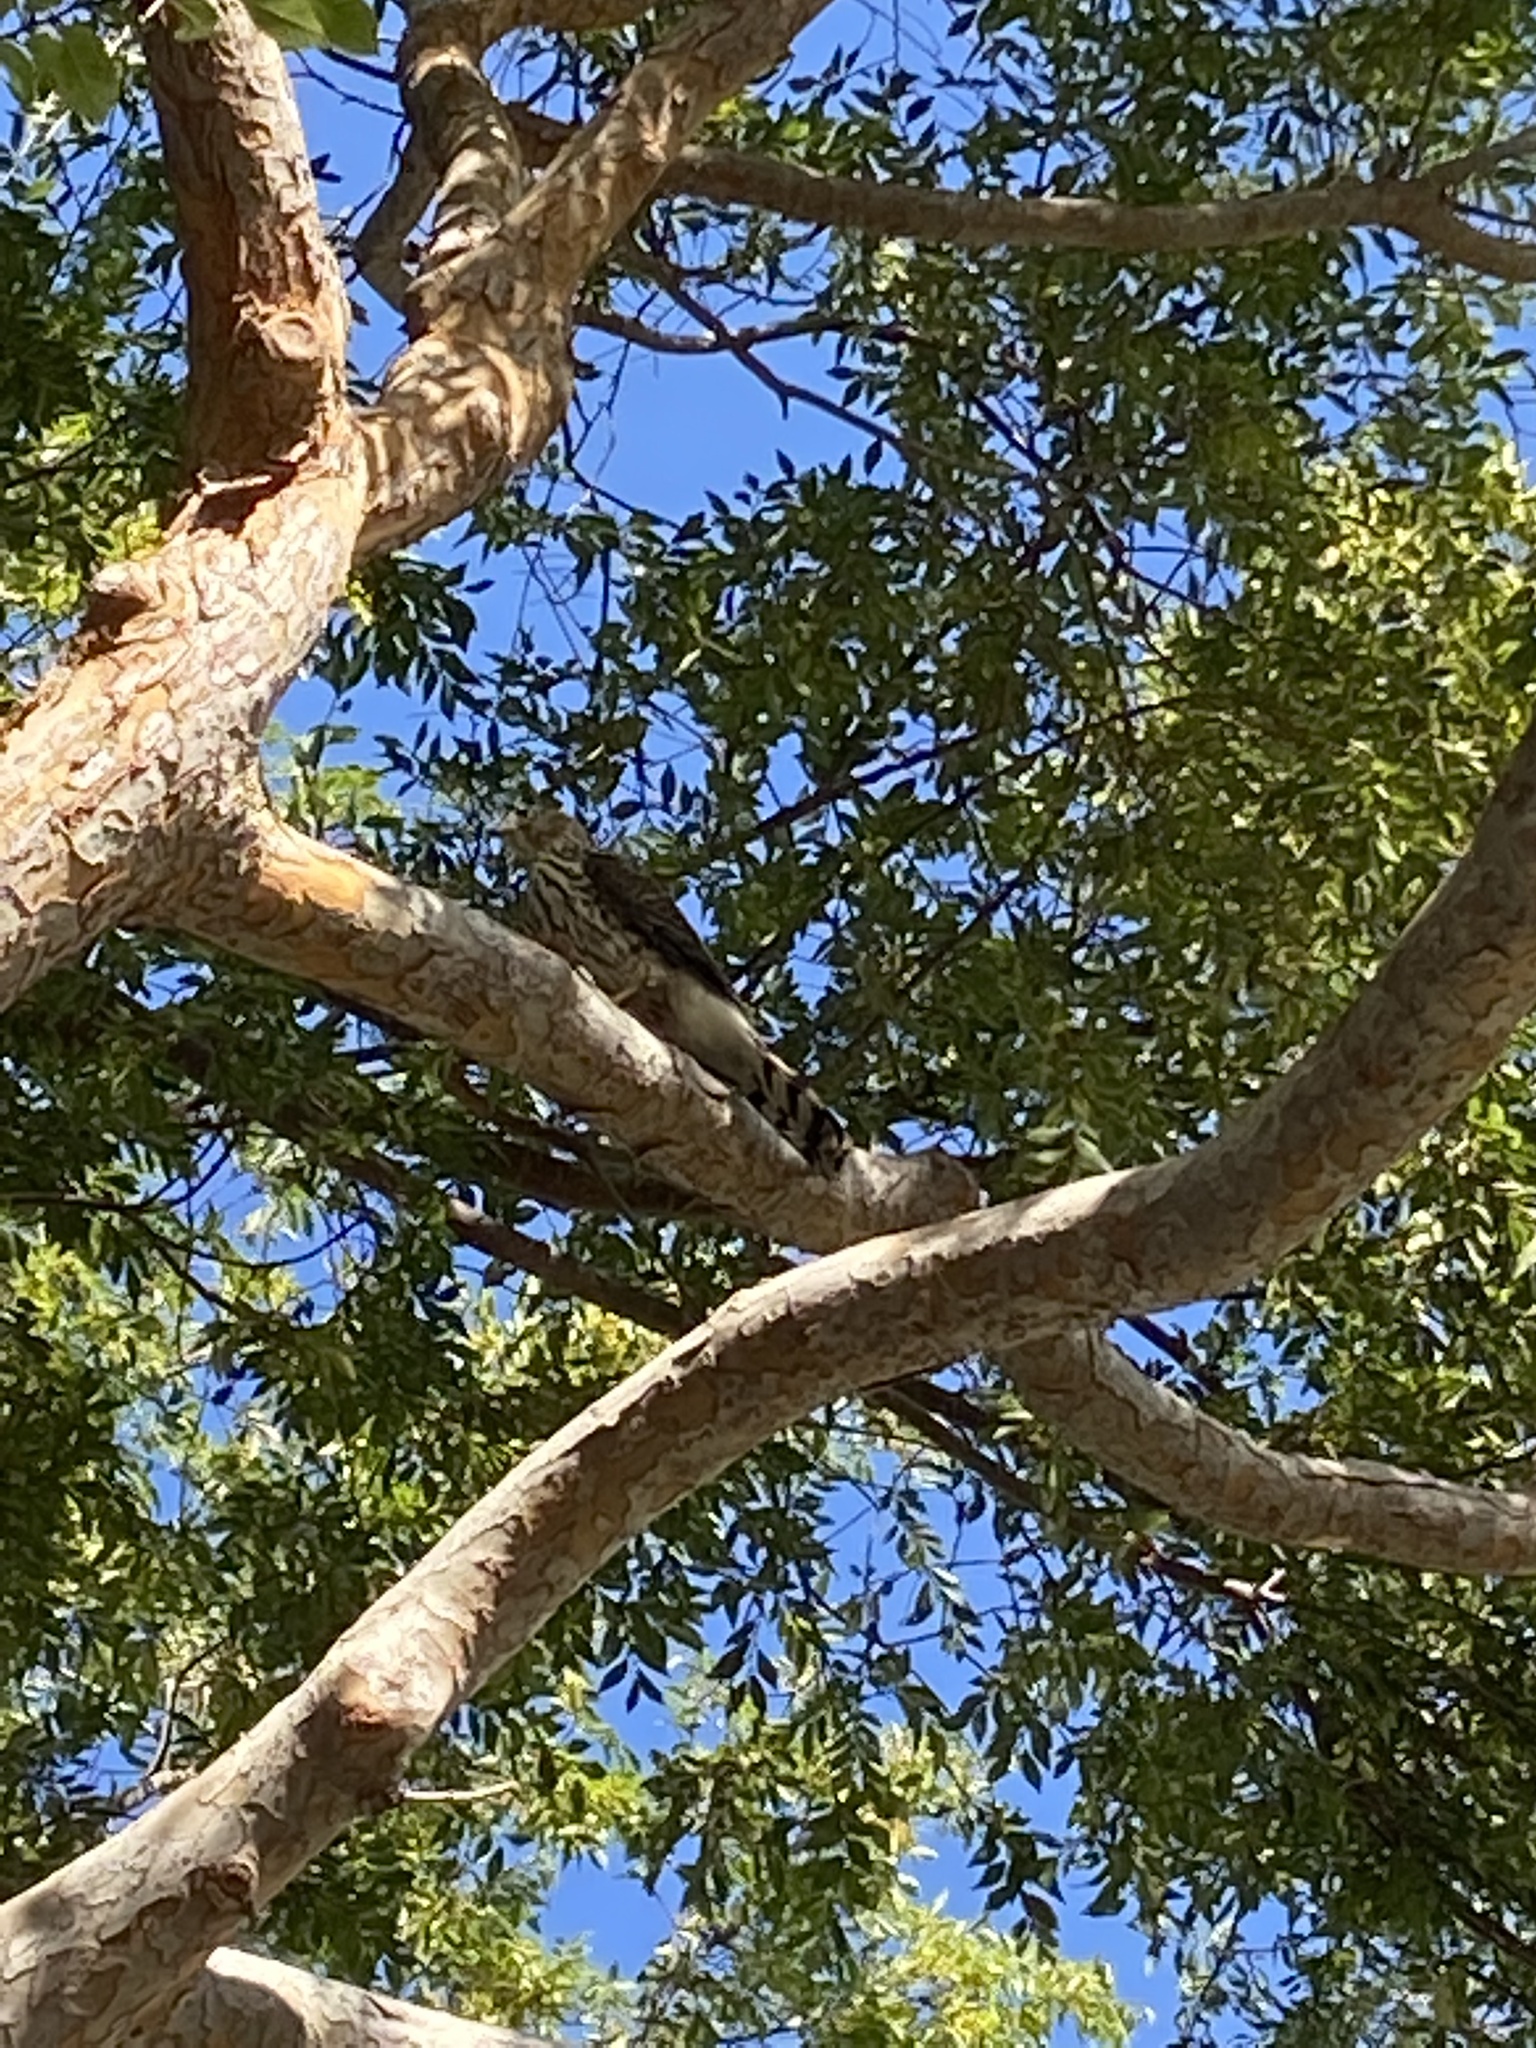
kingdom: Animalia
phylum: Chordata
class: Aves
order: Accipitriformes
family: Accipitridae
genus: Accipiter
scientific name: Accipiter cooperii
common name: Cooper's hawk
